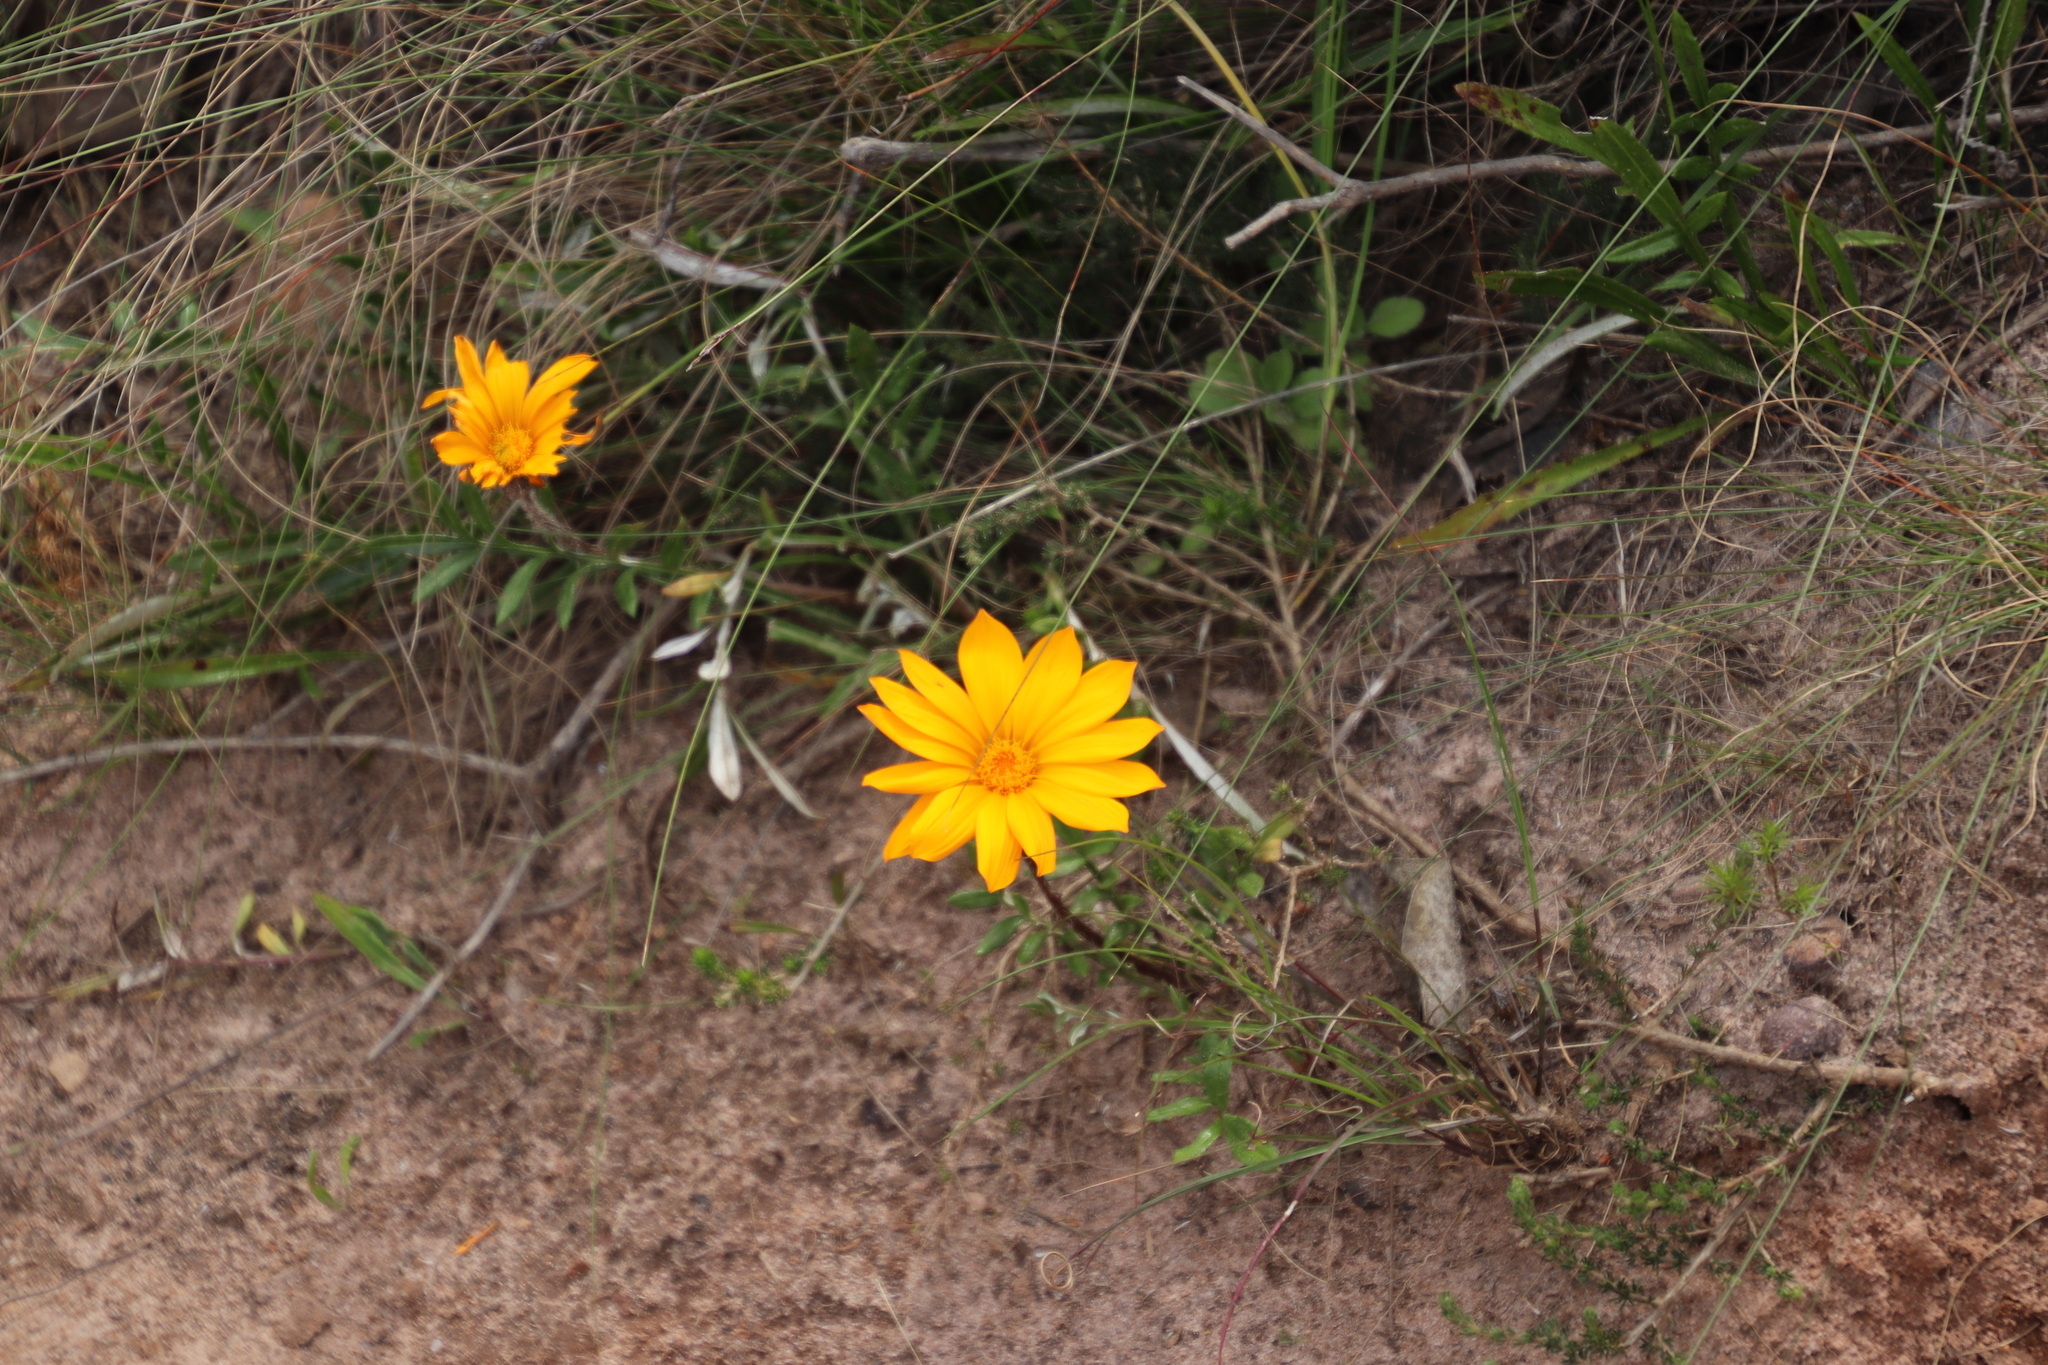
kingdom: Plantae
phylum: Tracheophyta
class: Magnoliopsida
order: Asterales
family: Asteraceae
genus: Gazania
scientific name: Gazania serrata
